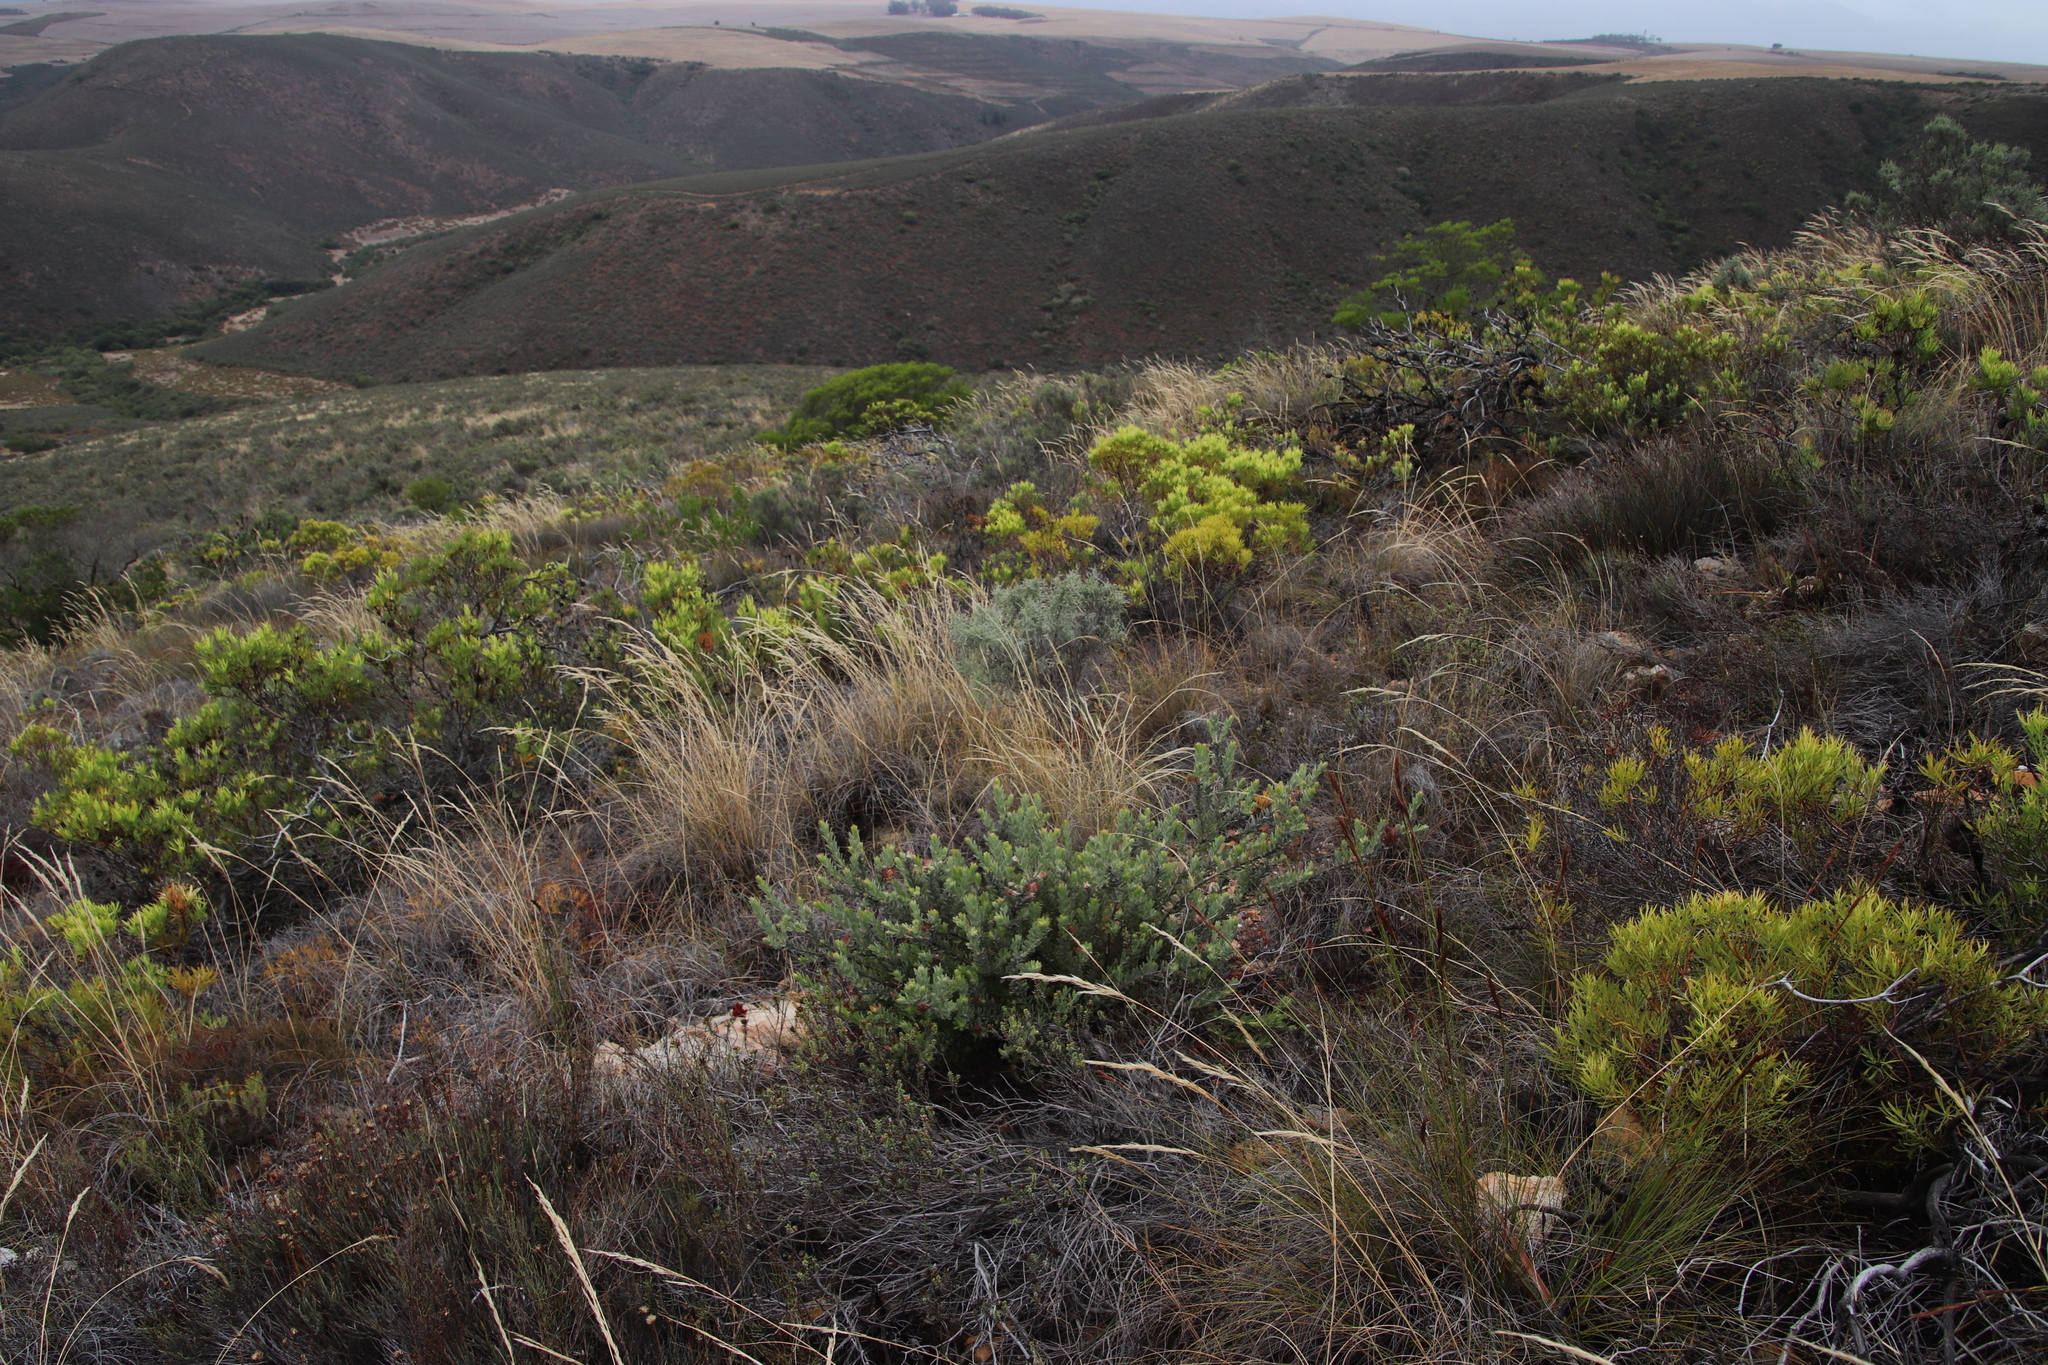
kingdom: Plantae
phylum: Tracheophyta
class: Magnoliopsida
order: Proteales
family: Proteaceae
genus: Leucospermum
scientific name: Leucospermum calligerum
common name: Arid pincushion
